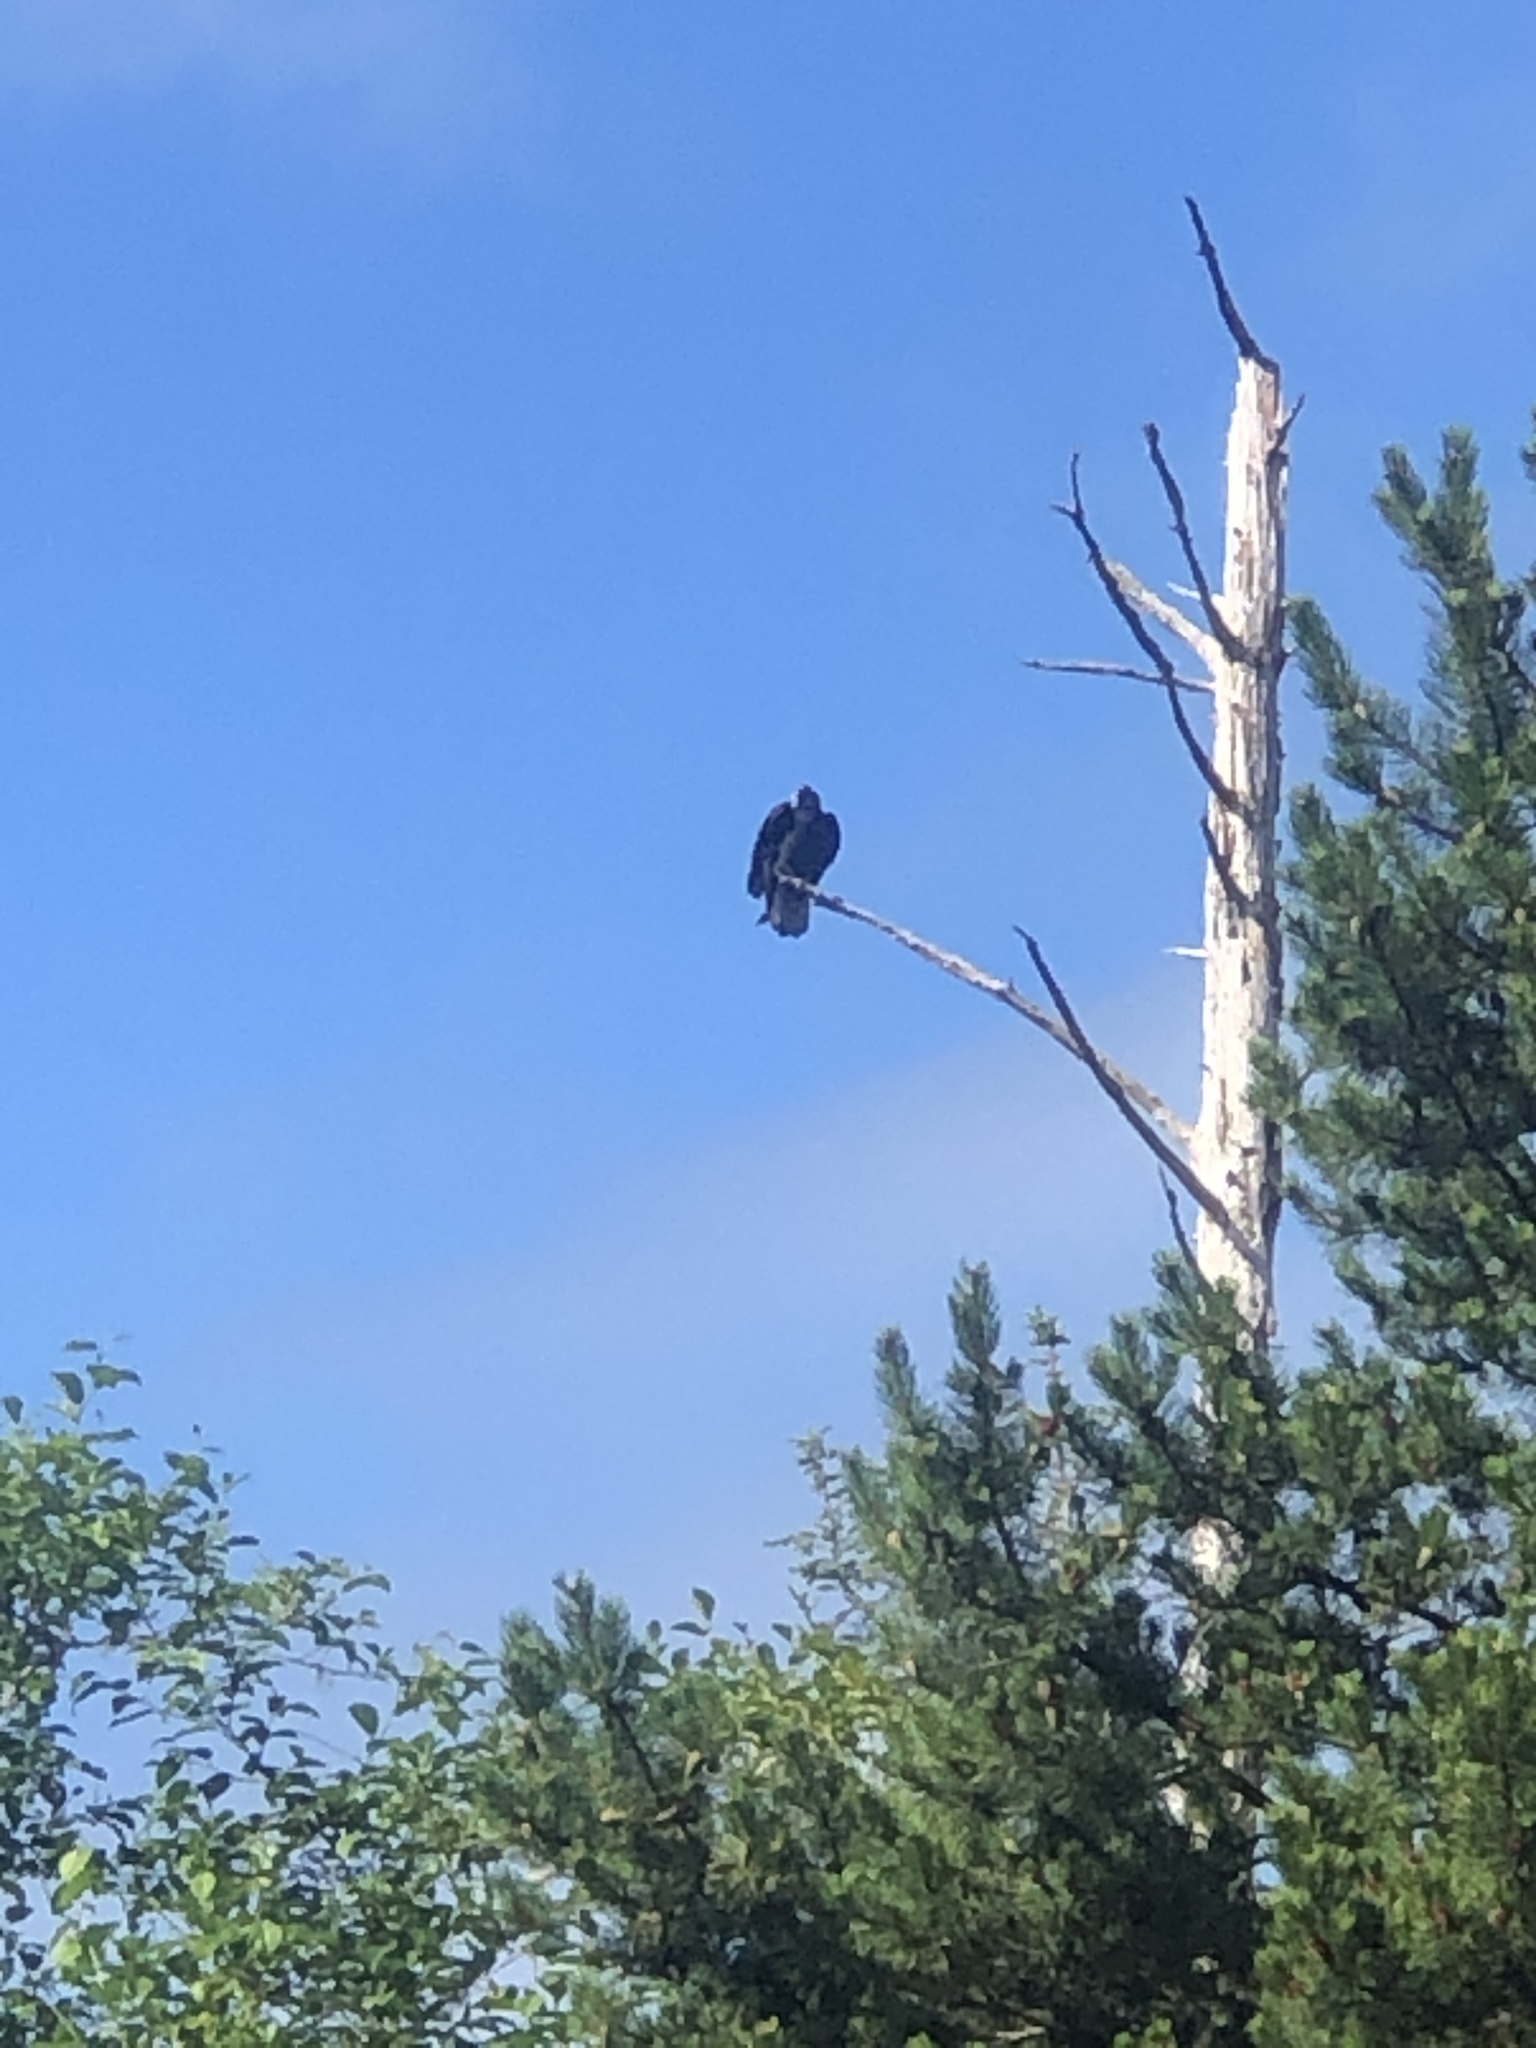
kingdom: Animalia
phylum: Chordata
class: Aves
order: Accipitriformes
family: Cathartidae
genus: Cathartes
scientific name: Cathartes aura
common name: Turkey vulture
